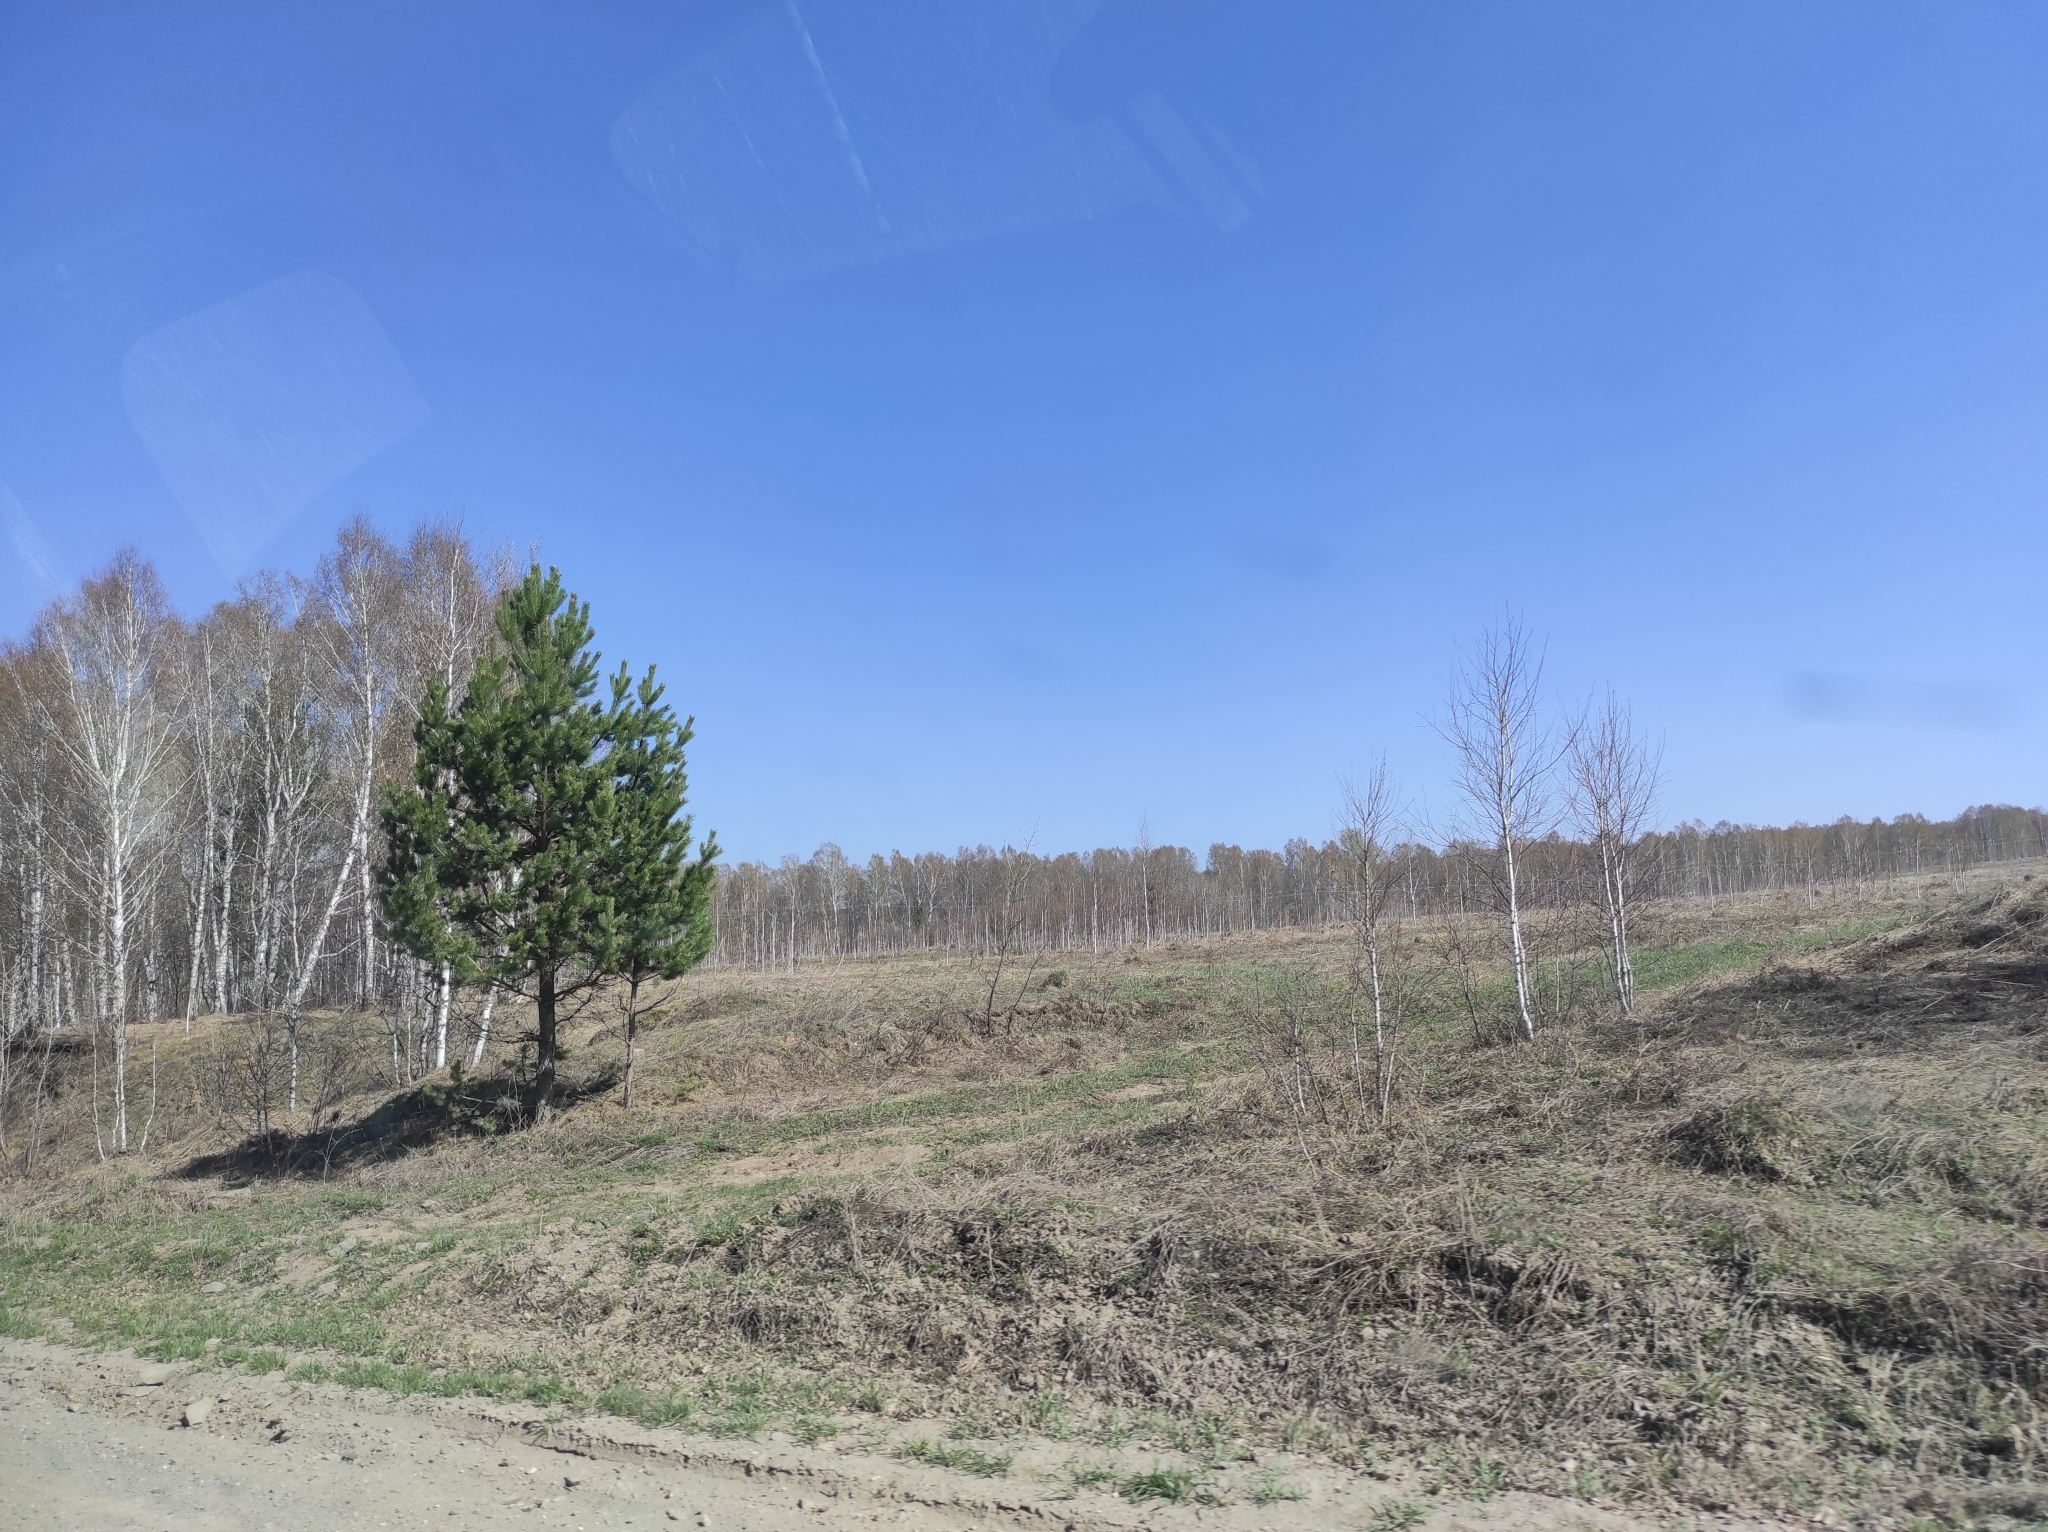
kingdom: Plantae
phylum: Tracheophyta
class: Pinopsida
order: Pinales
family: Pinaceae
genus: Pinus
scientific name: Pinus sylvestris
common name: Scots pine
